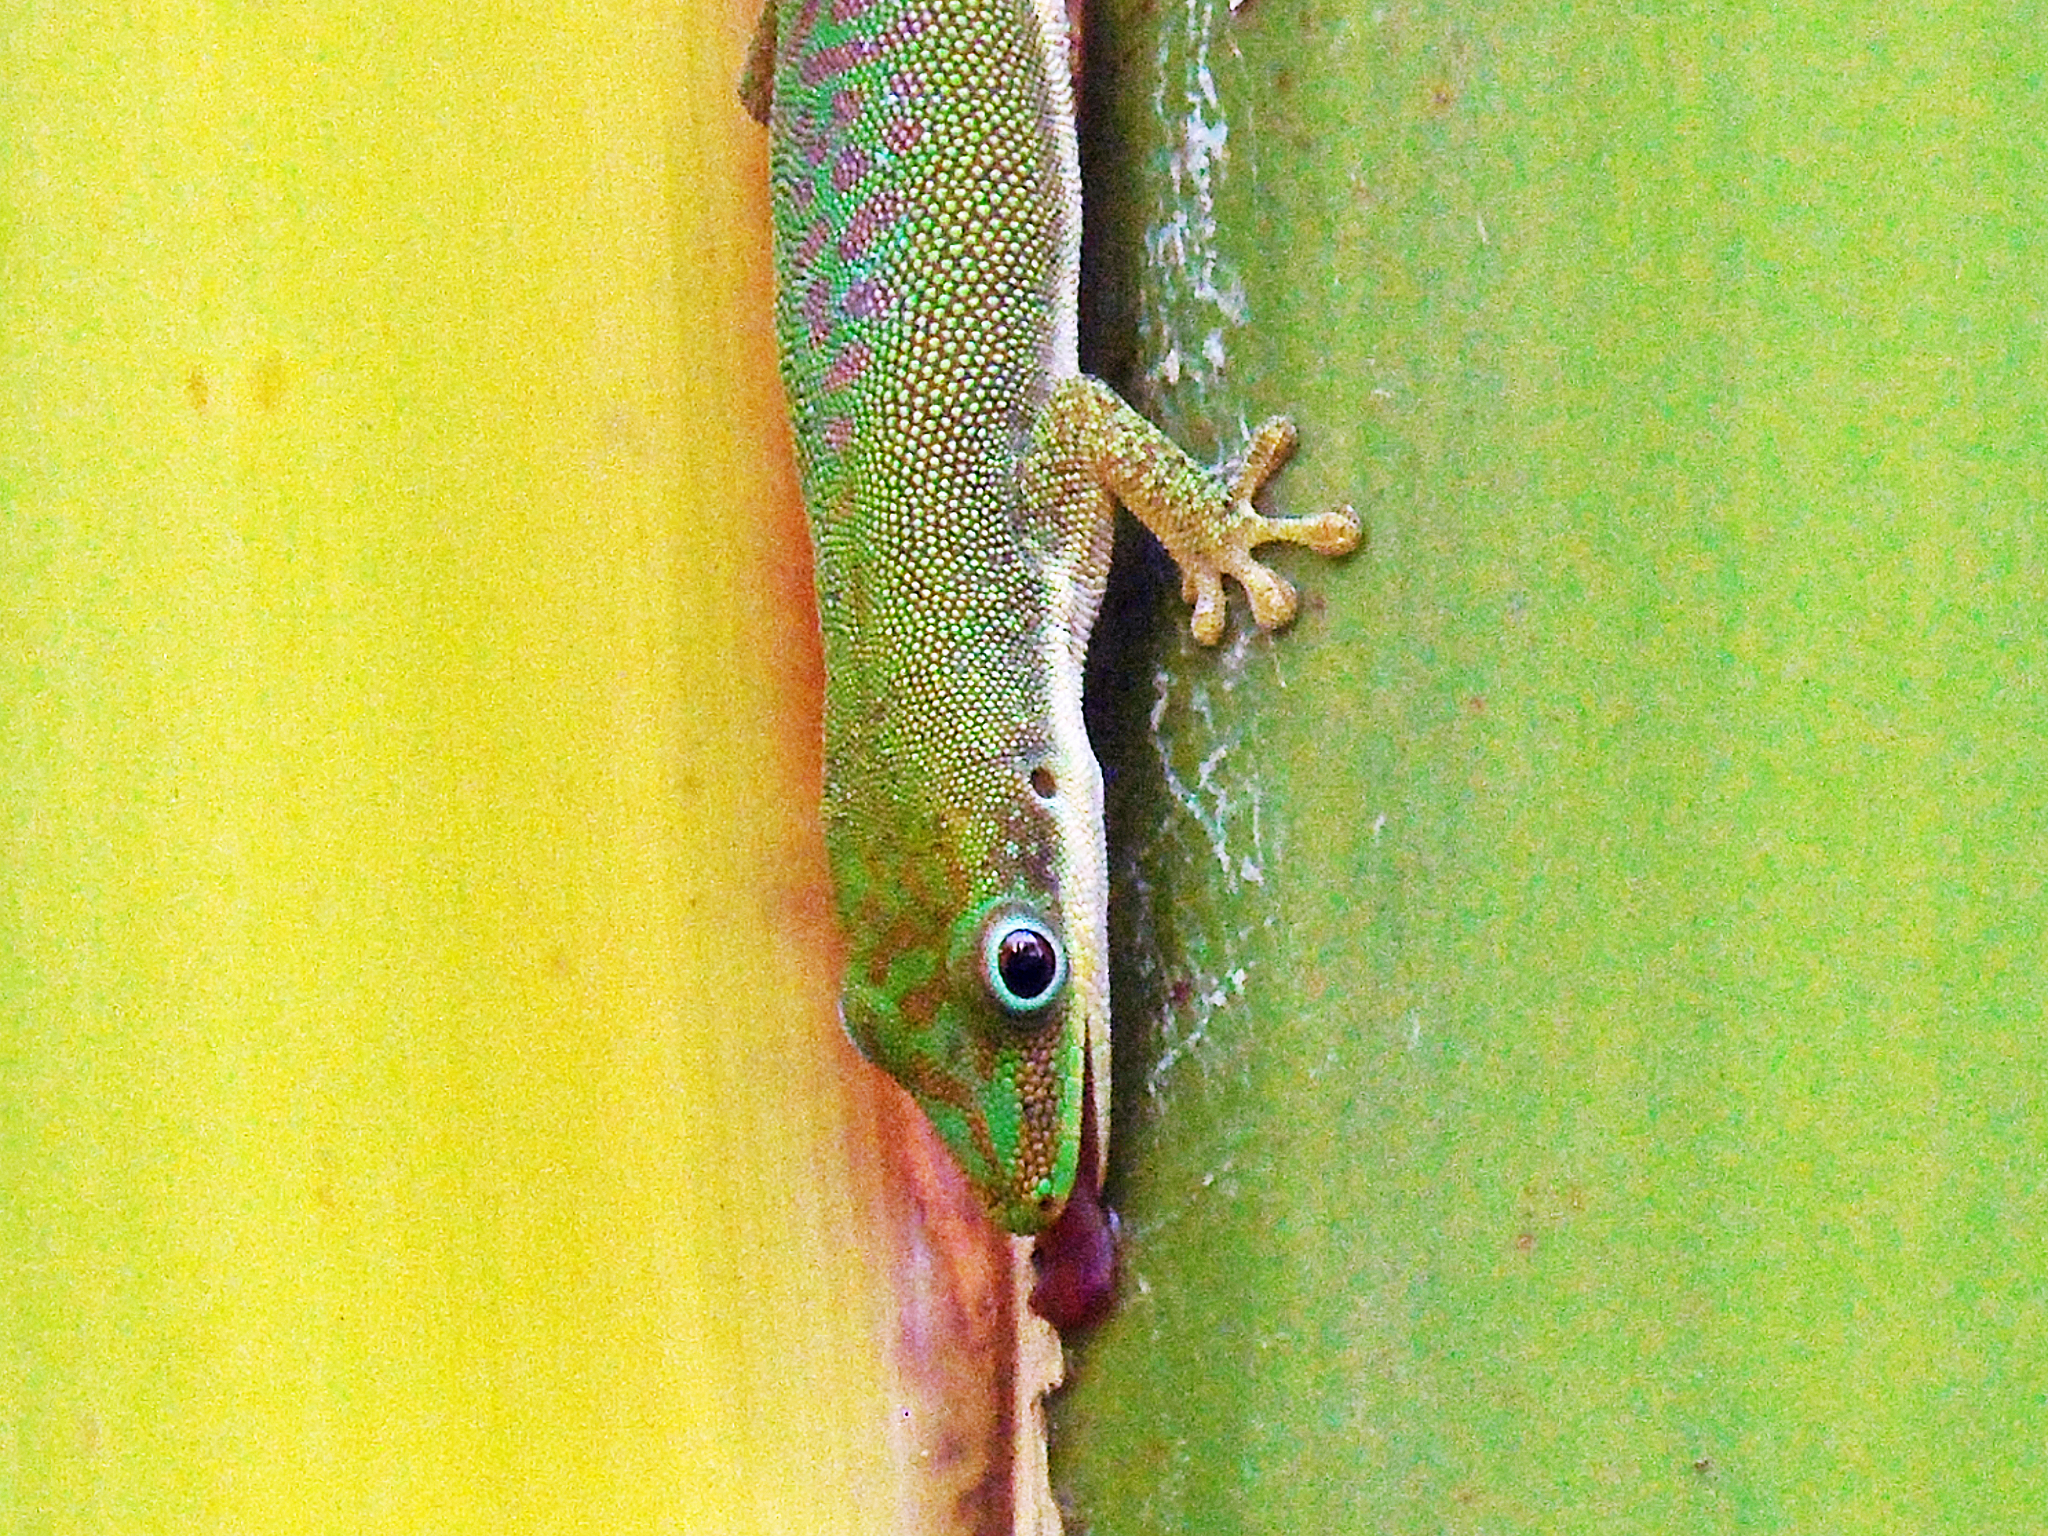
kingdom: Animalia
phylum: Chordata
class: Squamata
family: Gekkonidae
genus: Phelsuma
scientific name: Phelsuma dubia
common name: Zanzibar day gecko
